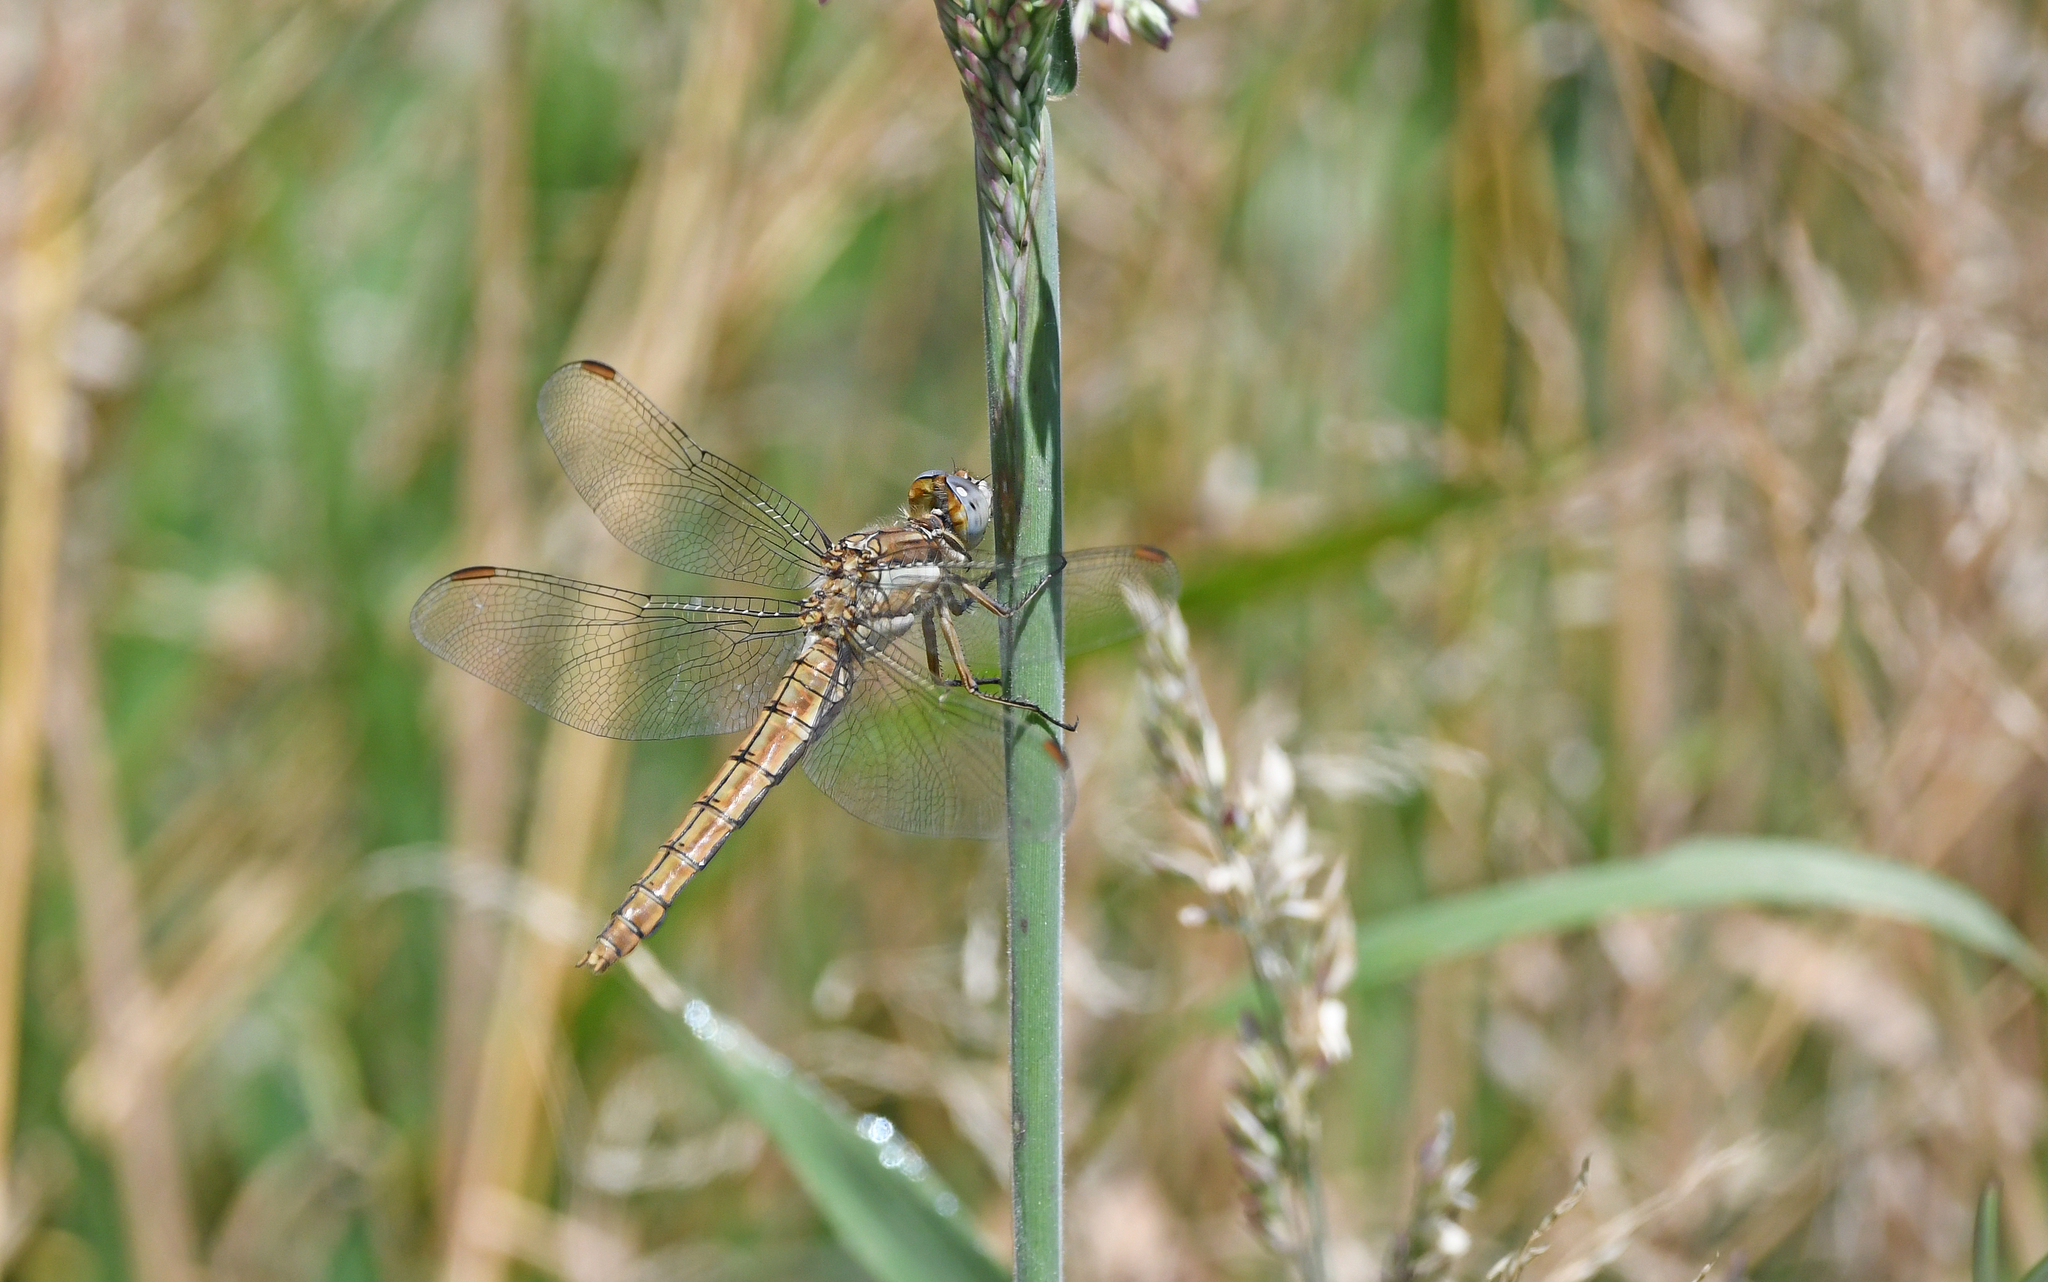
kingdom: Animalia
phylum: Arthropoda
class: Insecta
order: Odonata
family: Libellulidae
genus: Orthetrum
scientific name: Orthetrum brunneum
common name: Southern skimmer
